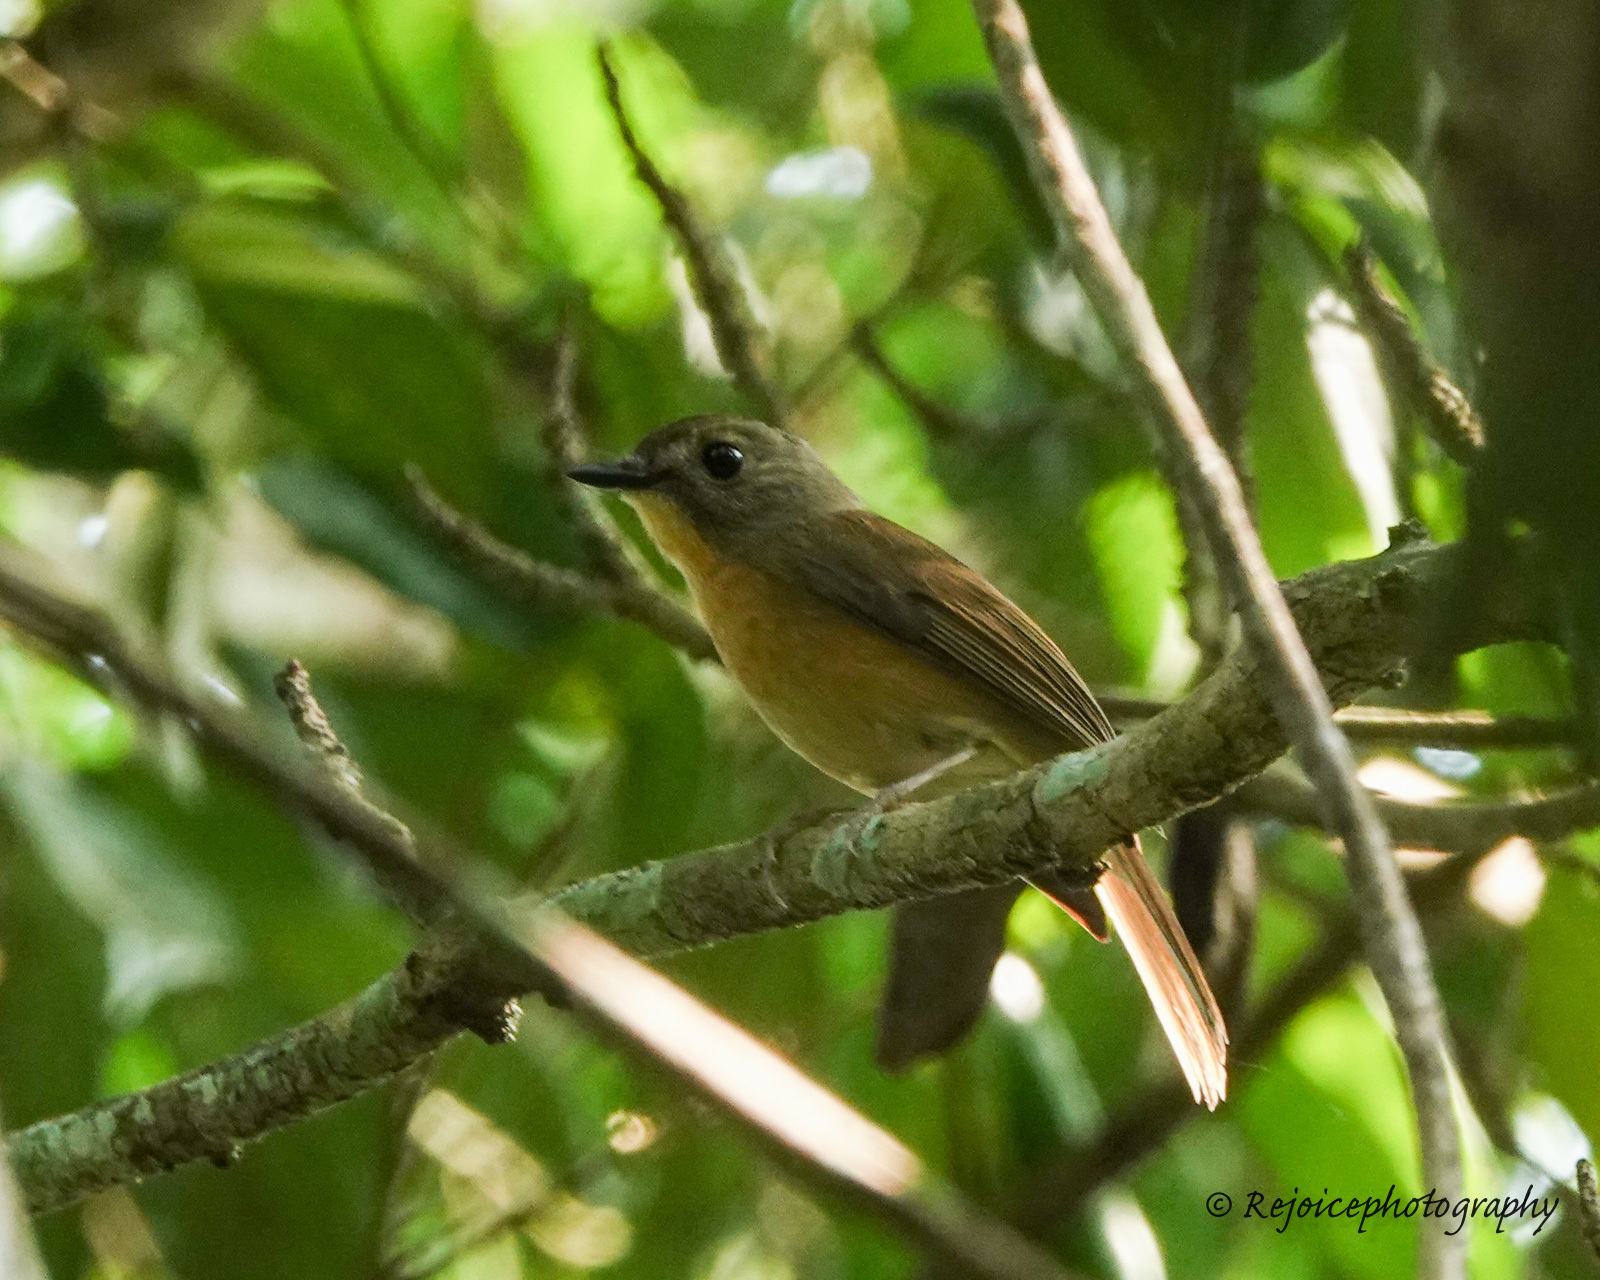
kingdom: Animalia
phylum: Chordata
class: Aves
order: Passeriformes
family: Muscicapidae
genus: Cyornis
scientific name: Cyornis poliogenys
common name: Pale-chinned blue flycatcher
